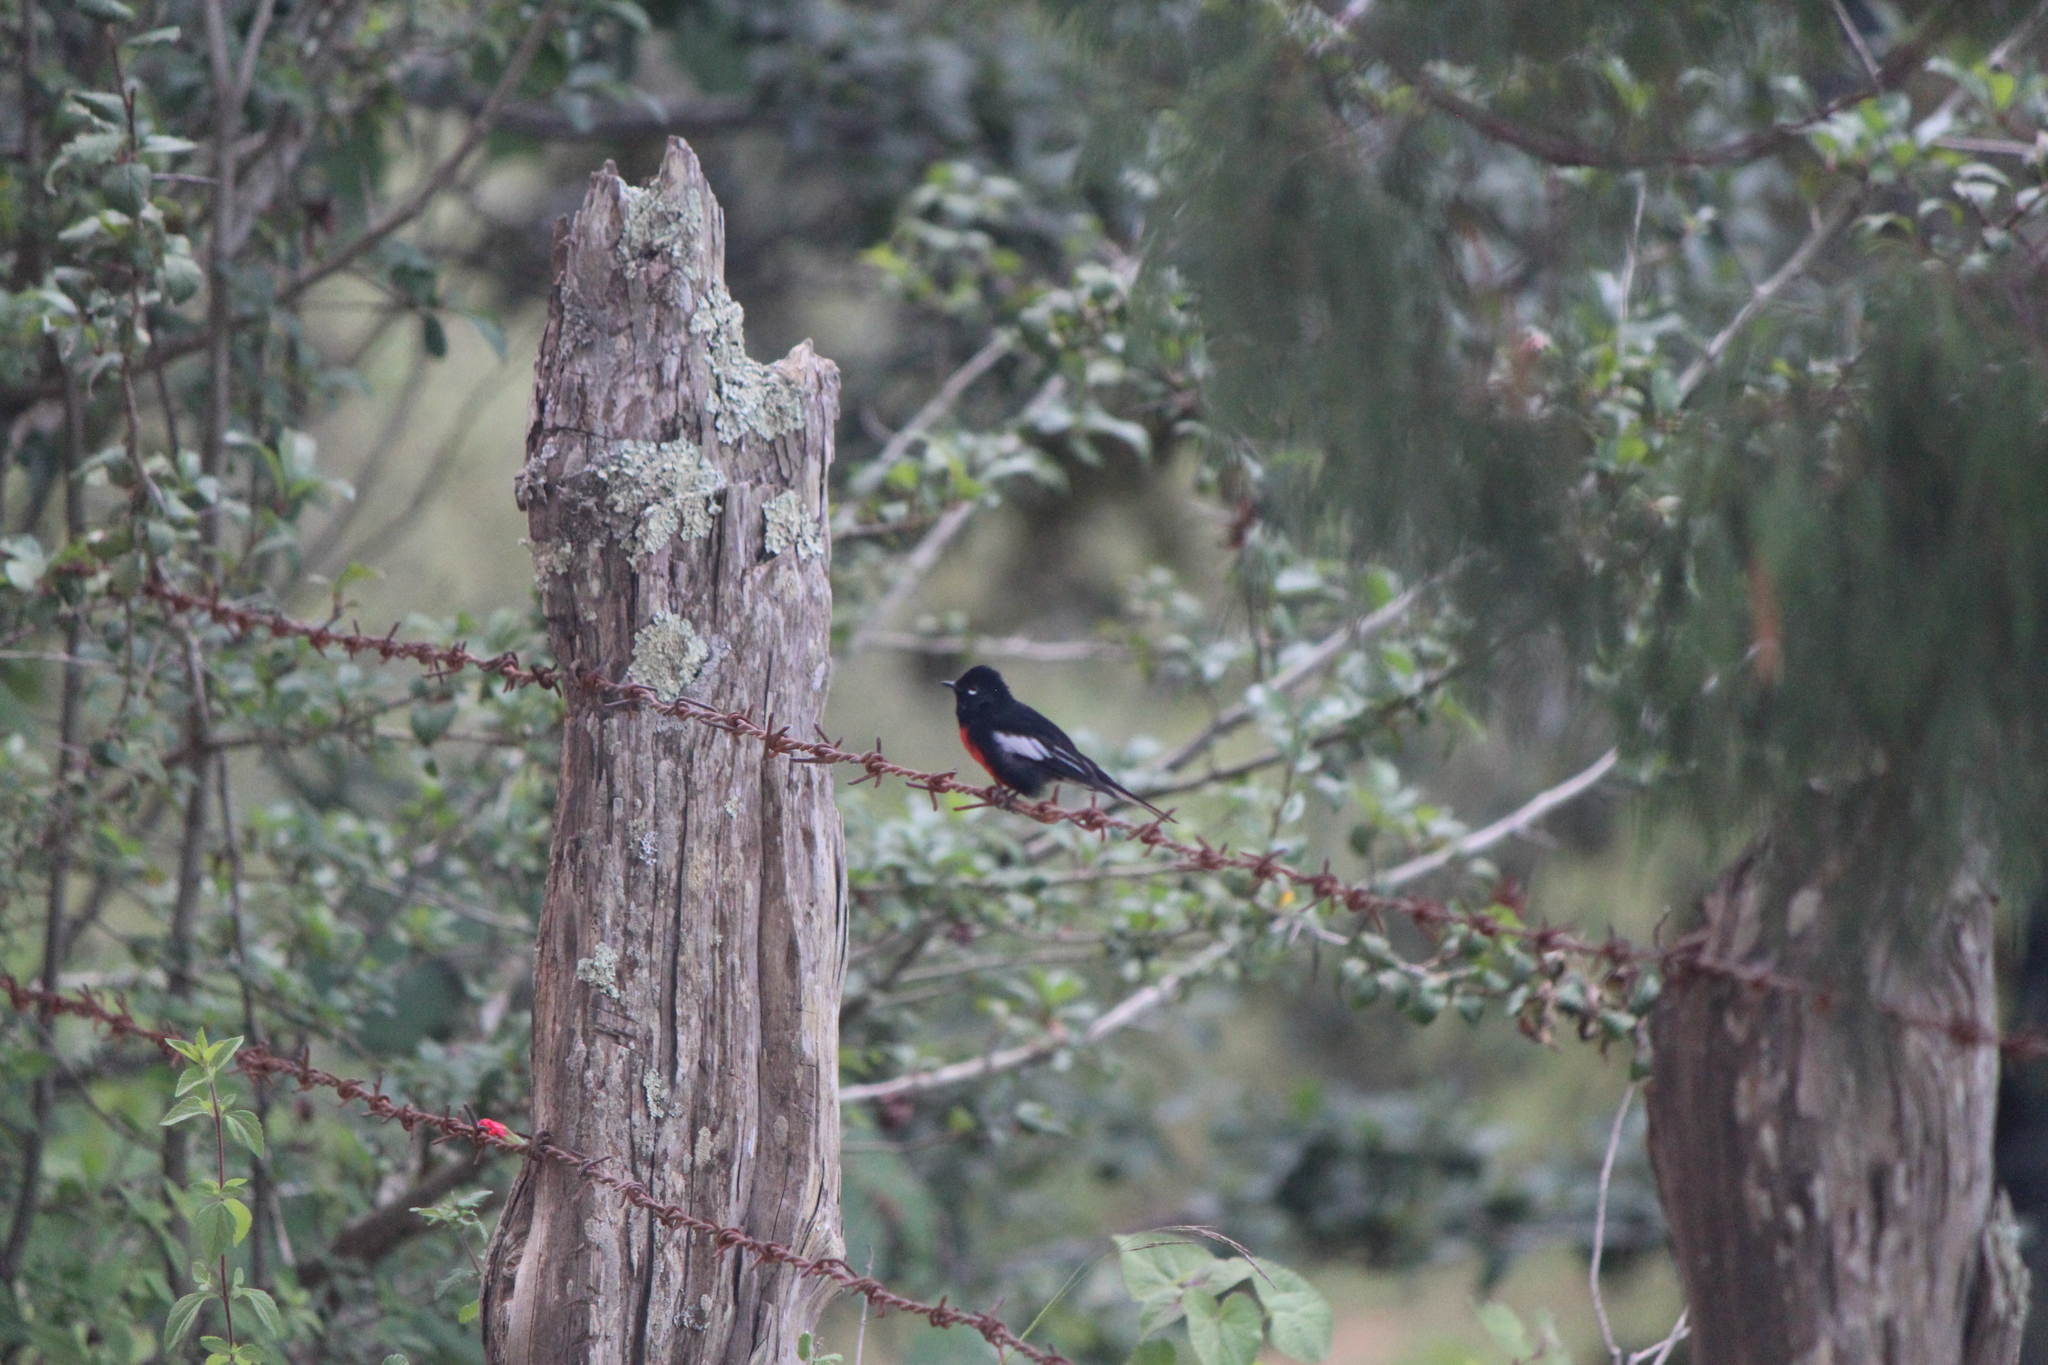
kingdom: Animalia
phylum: Chordata
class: Aves
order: Passeriformes
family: Parulidae
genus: Myioborus
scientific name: Myioborus pictus
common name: Painted whitestart
